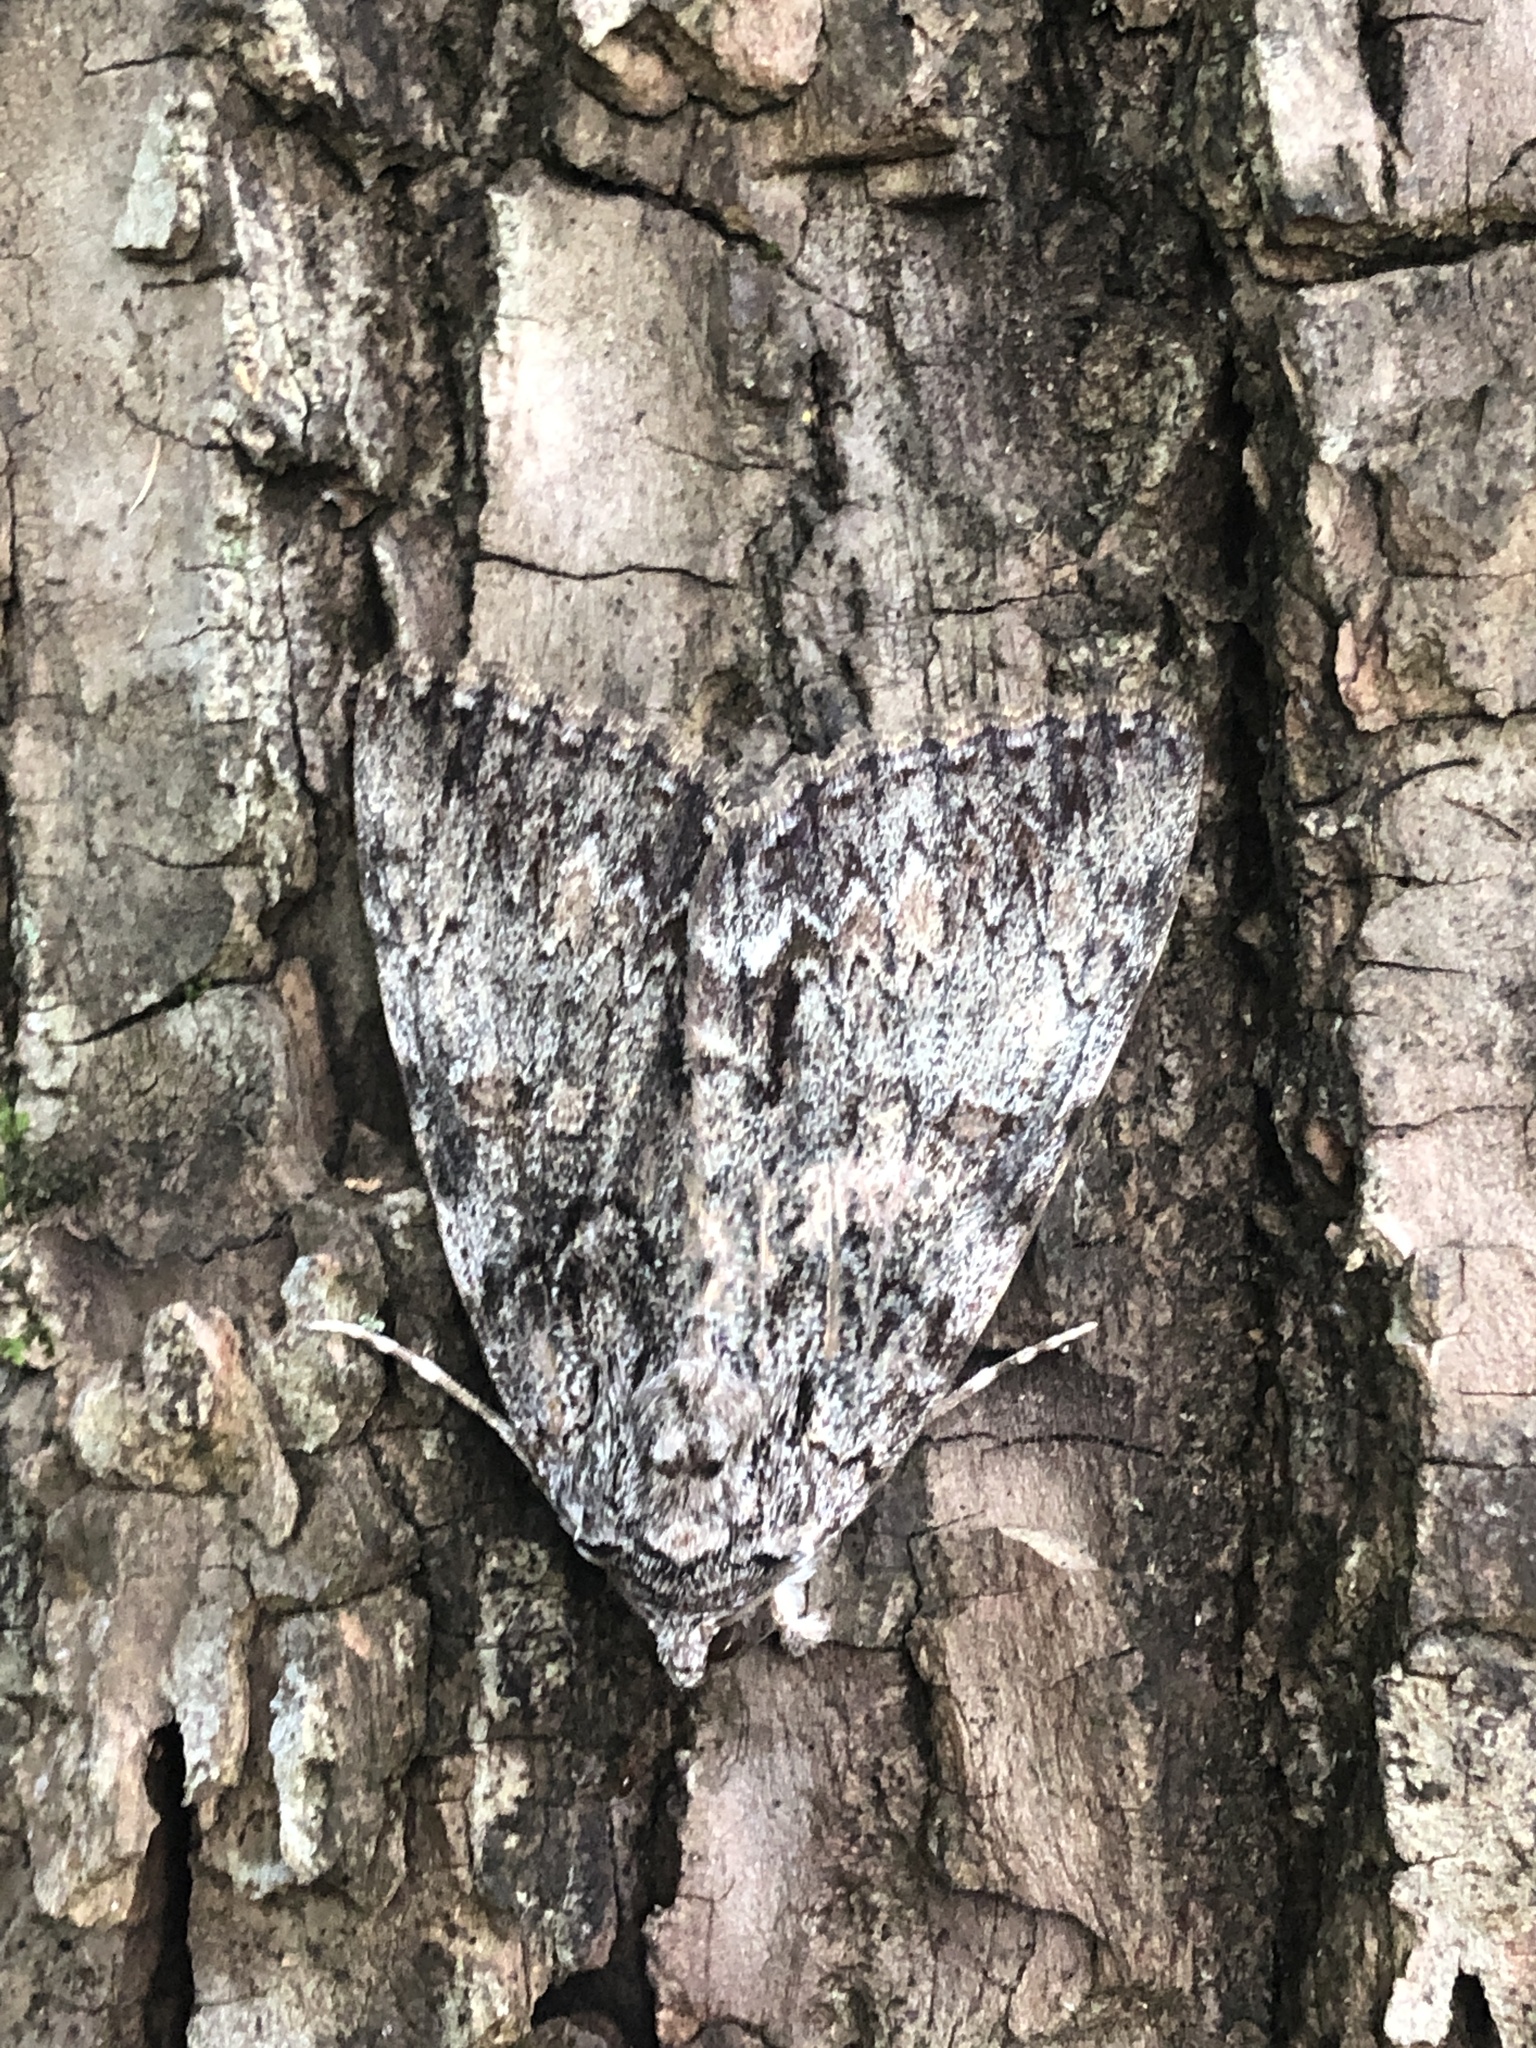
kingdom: Animalia
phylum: Arthropoda
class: Insecta
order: Lepidoptera
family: Erebidae
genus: Catocala
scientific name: Catocala palaeogama
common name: Oldwife underwing
